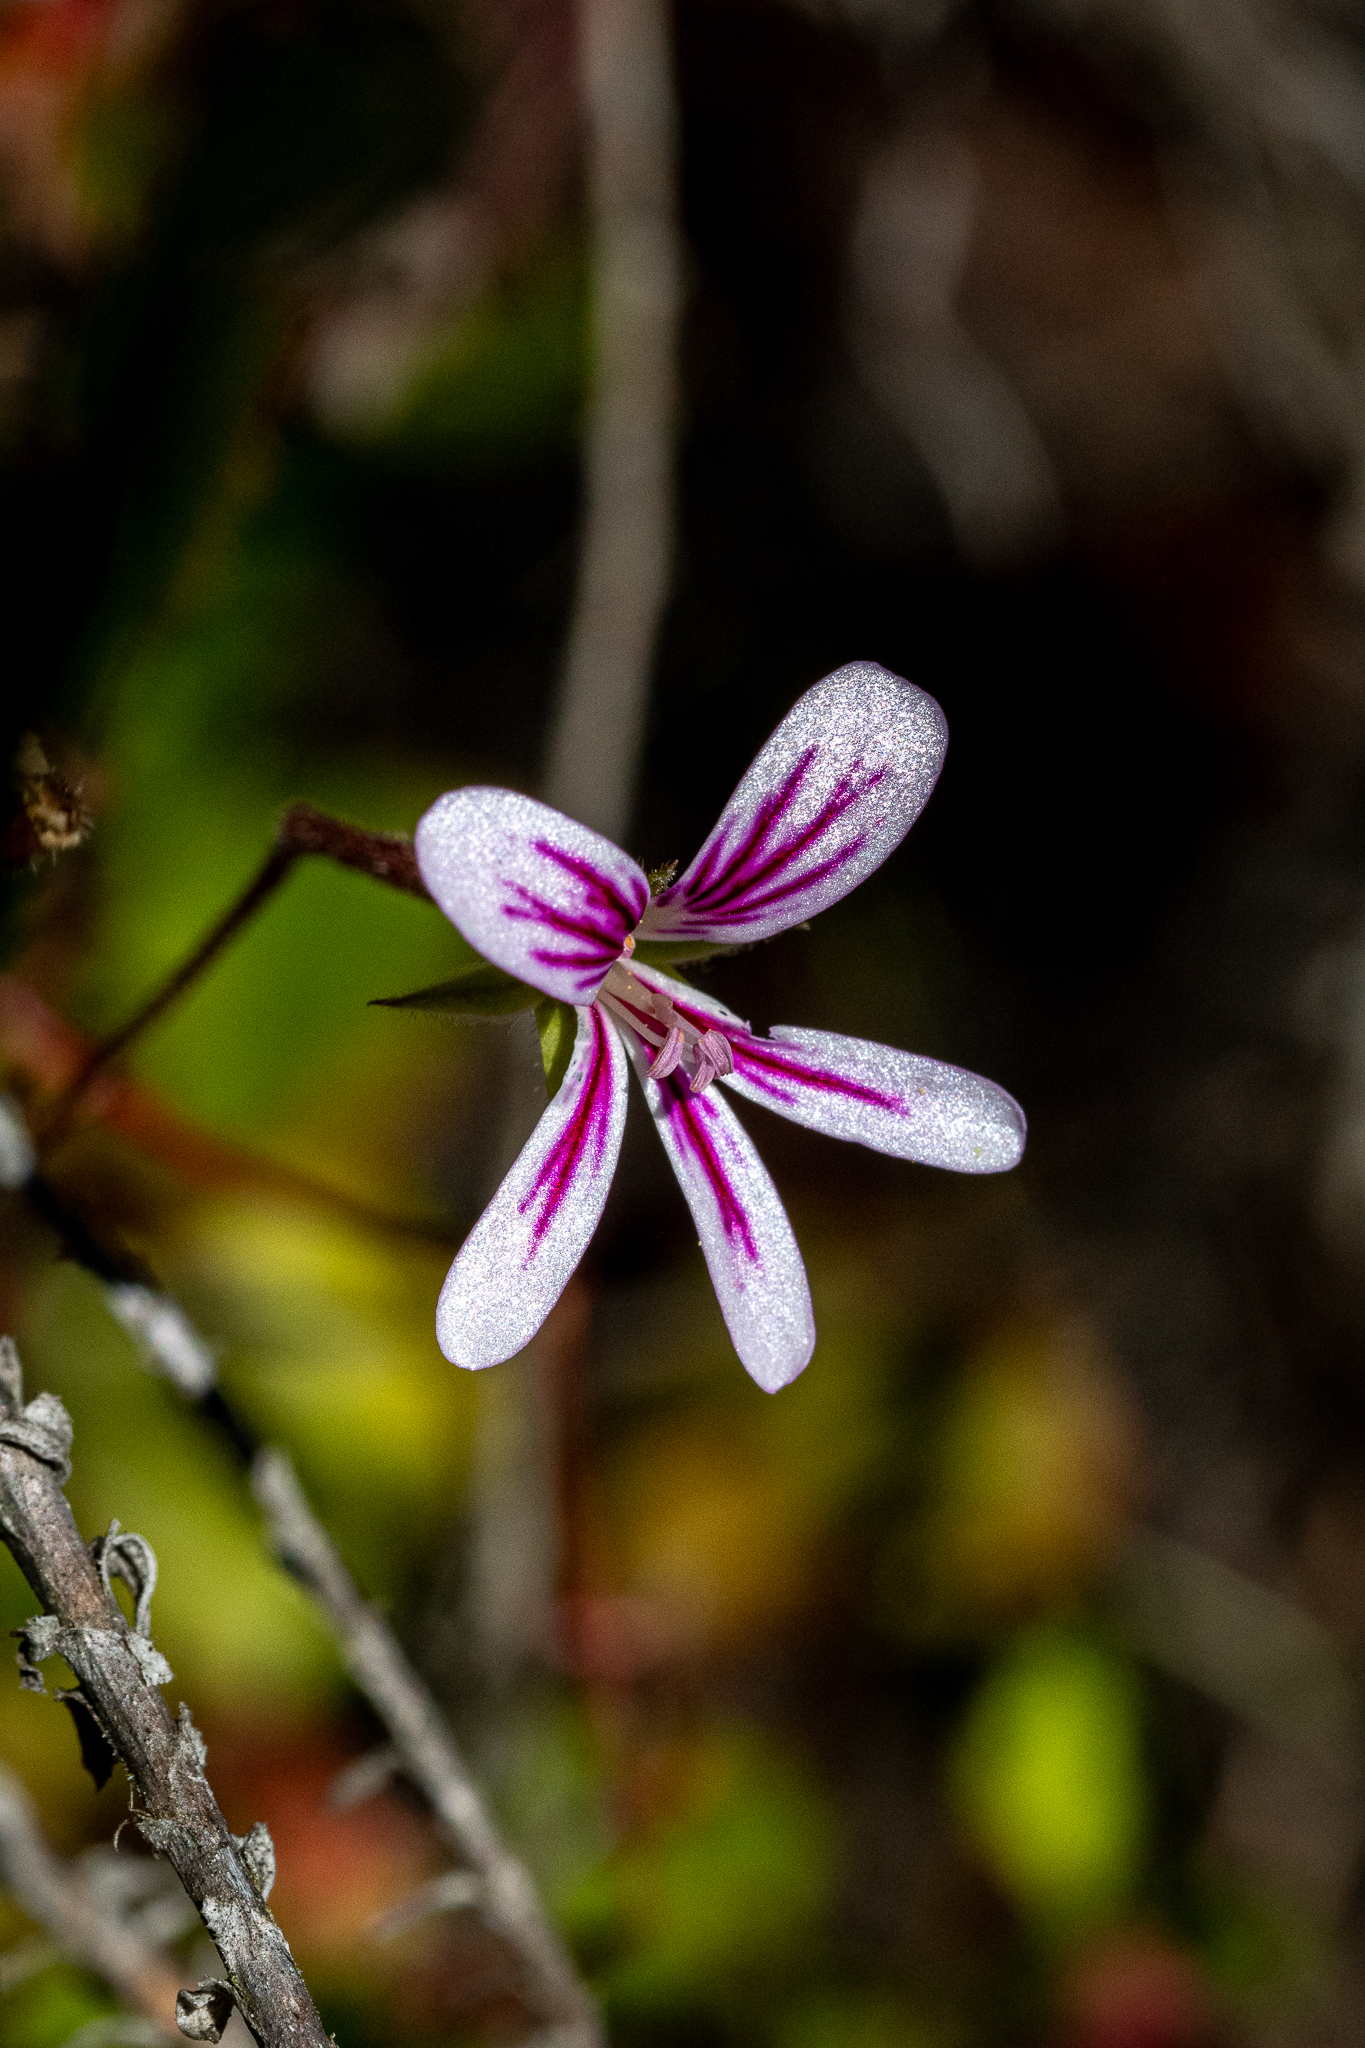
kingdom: Plantae
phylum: Tracheophyta
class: Magnoliopsida
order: Geraniales
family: Geraniaceae
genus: Pelargonium
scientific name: Pelargonium pseudosetulosum
